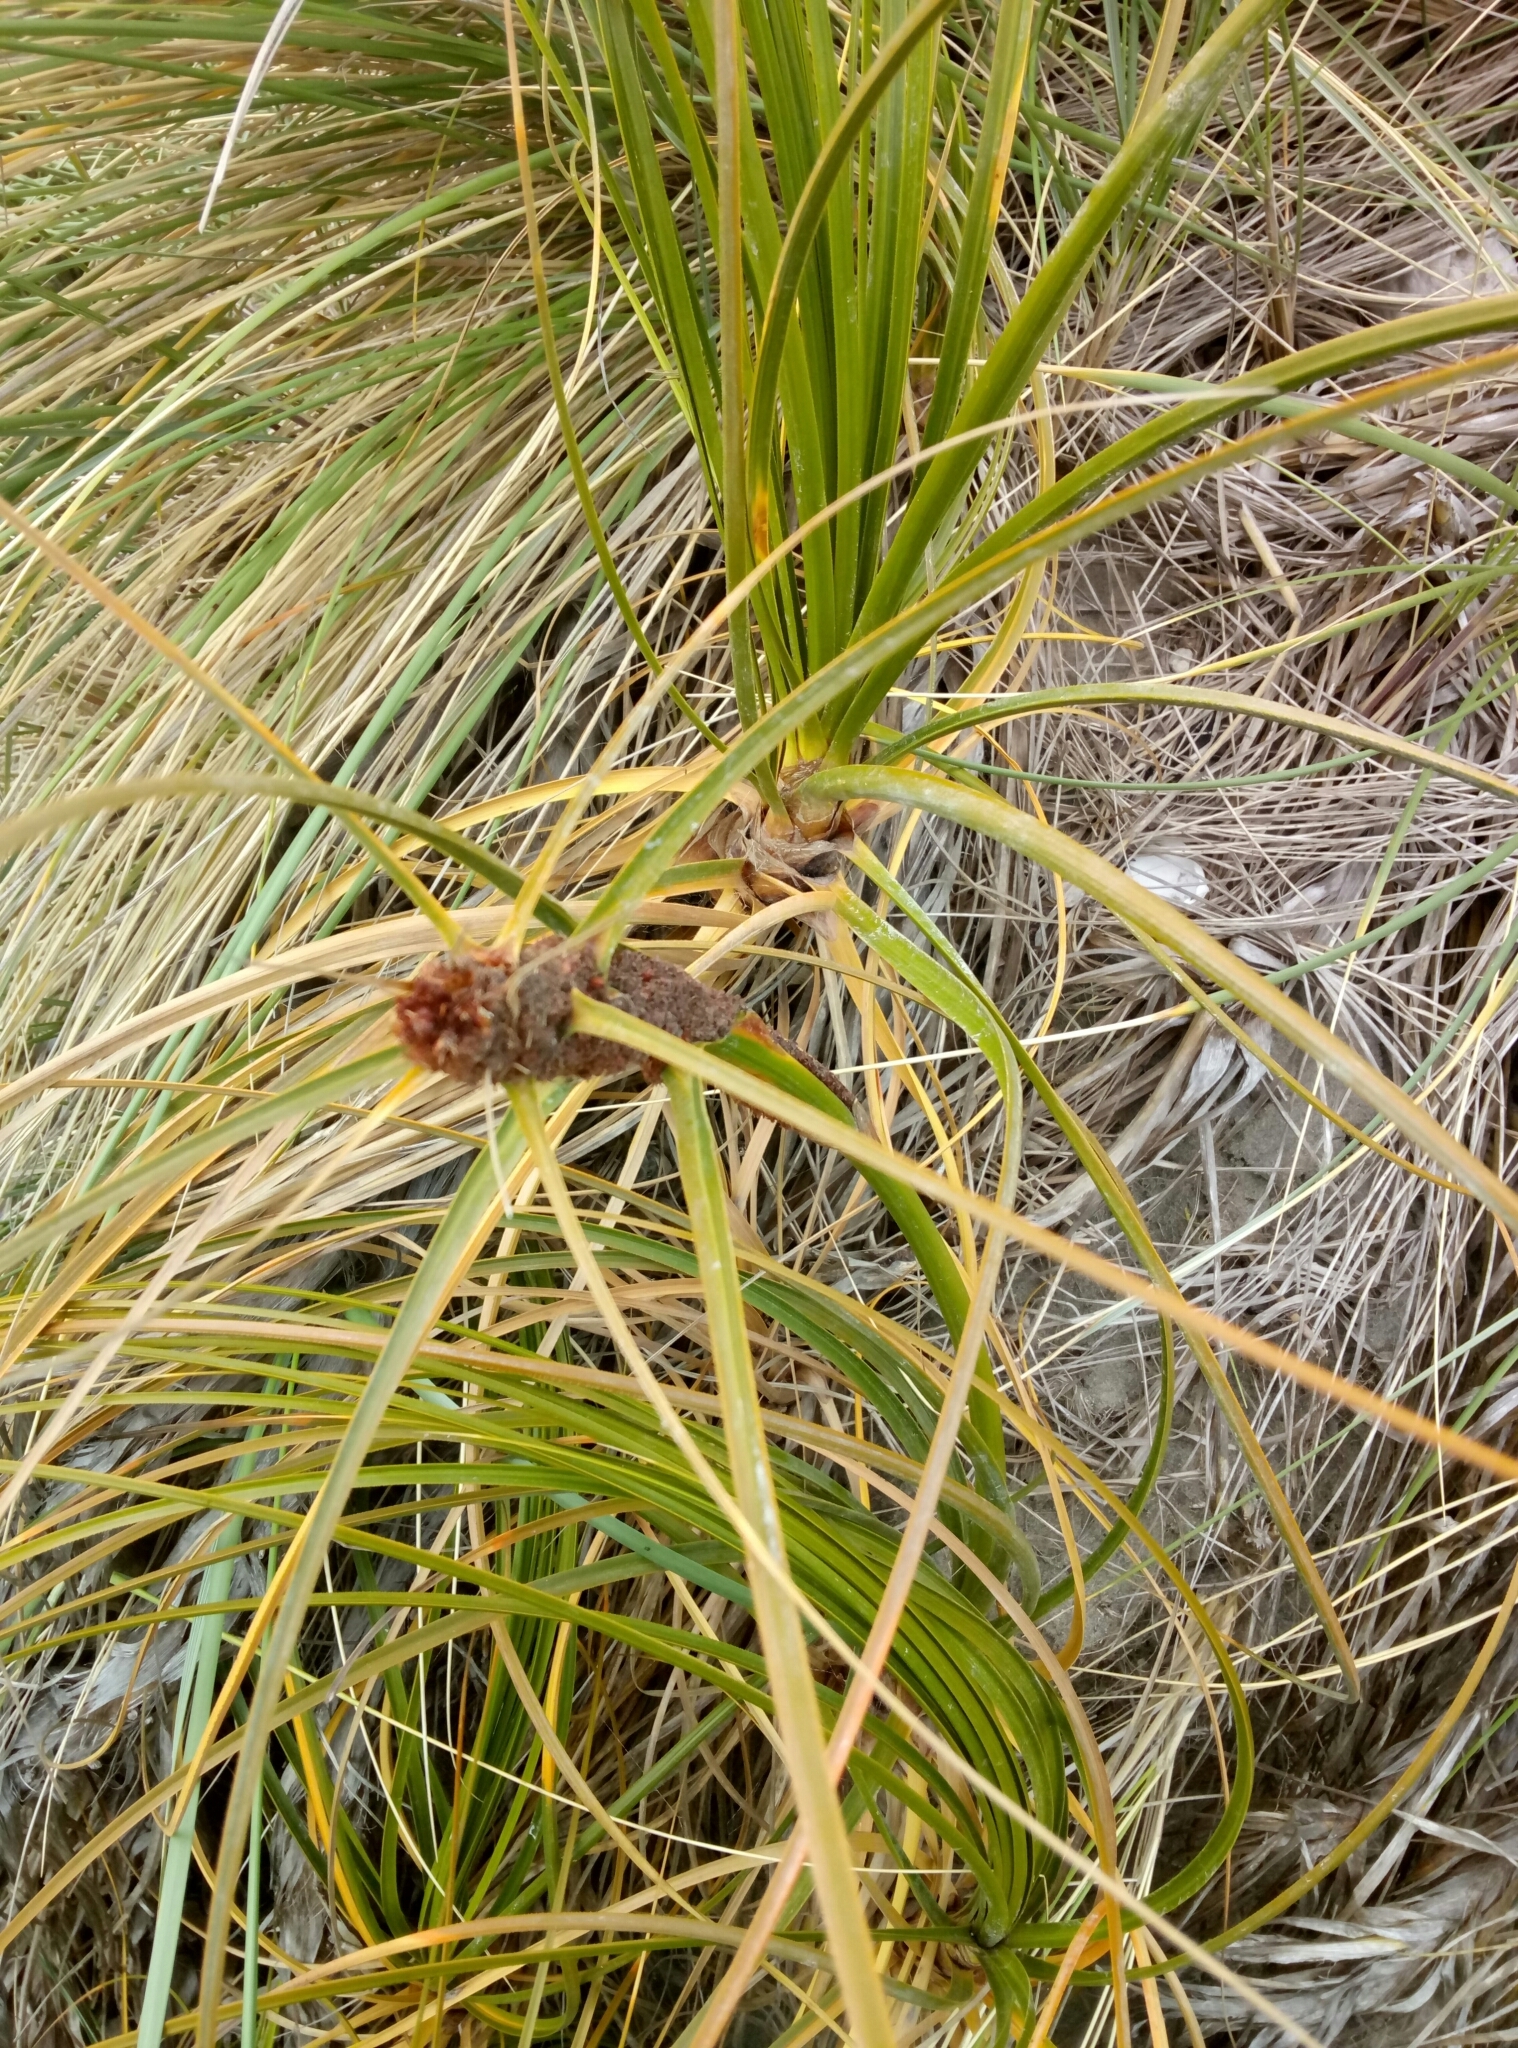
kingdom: Plantae
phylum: Tracheophyta
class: Liliopsida
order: Poales
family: Cyperaceae
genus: Ficinia
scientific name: Ficinia spiralis
